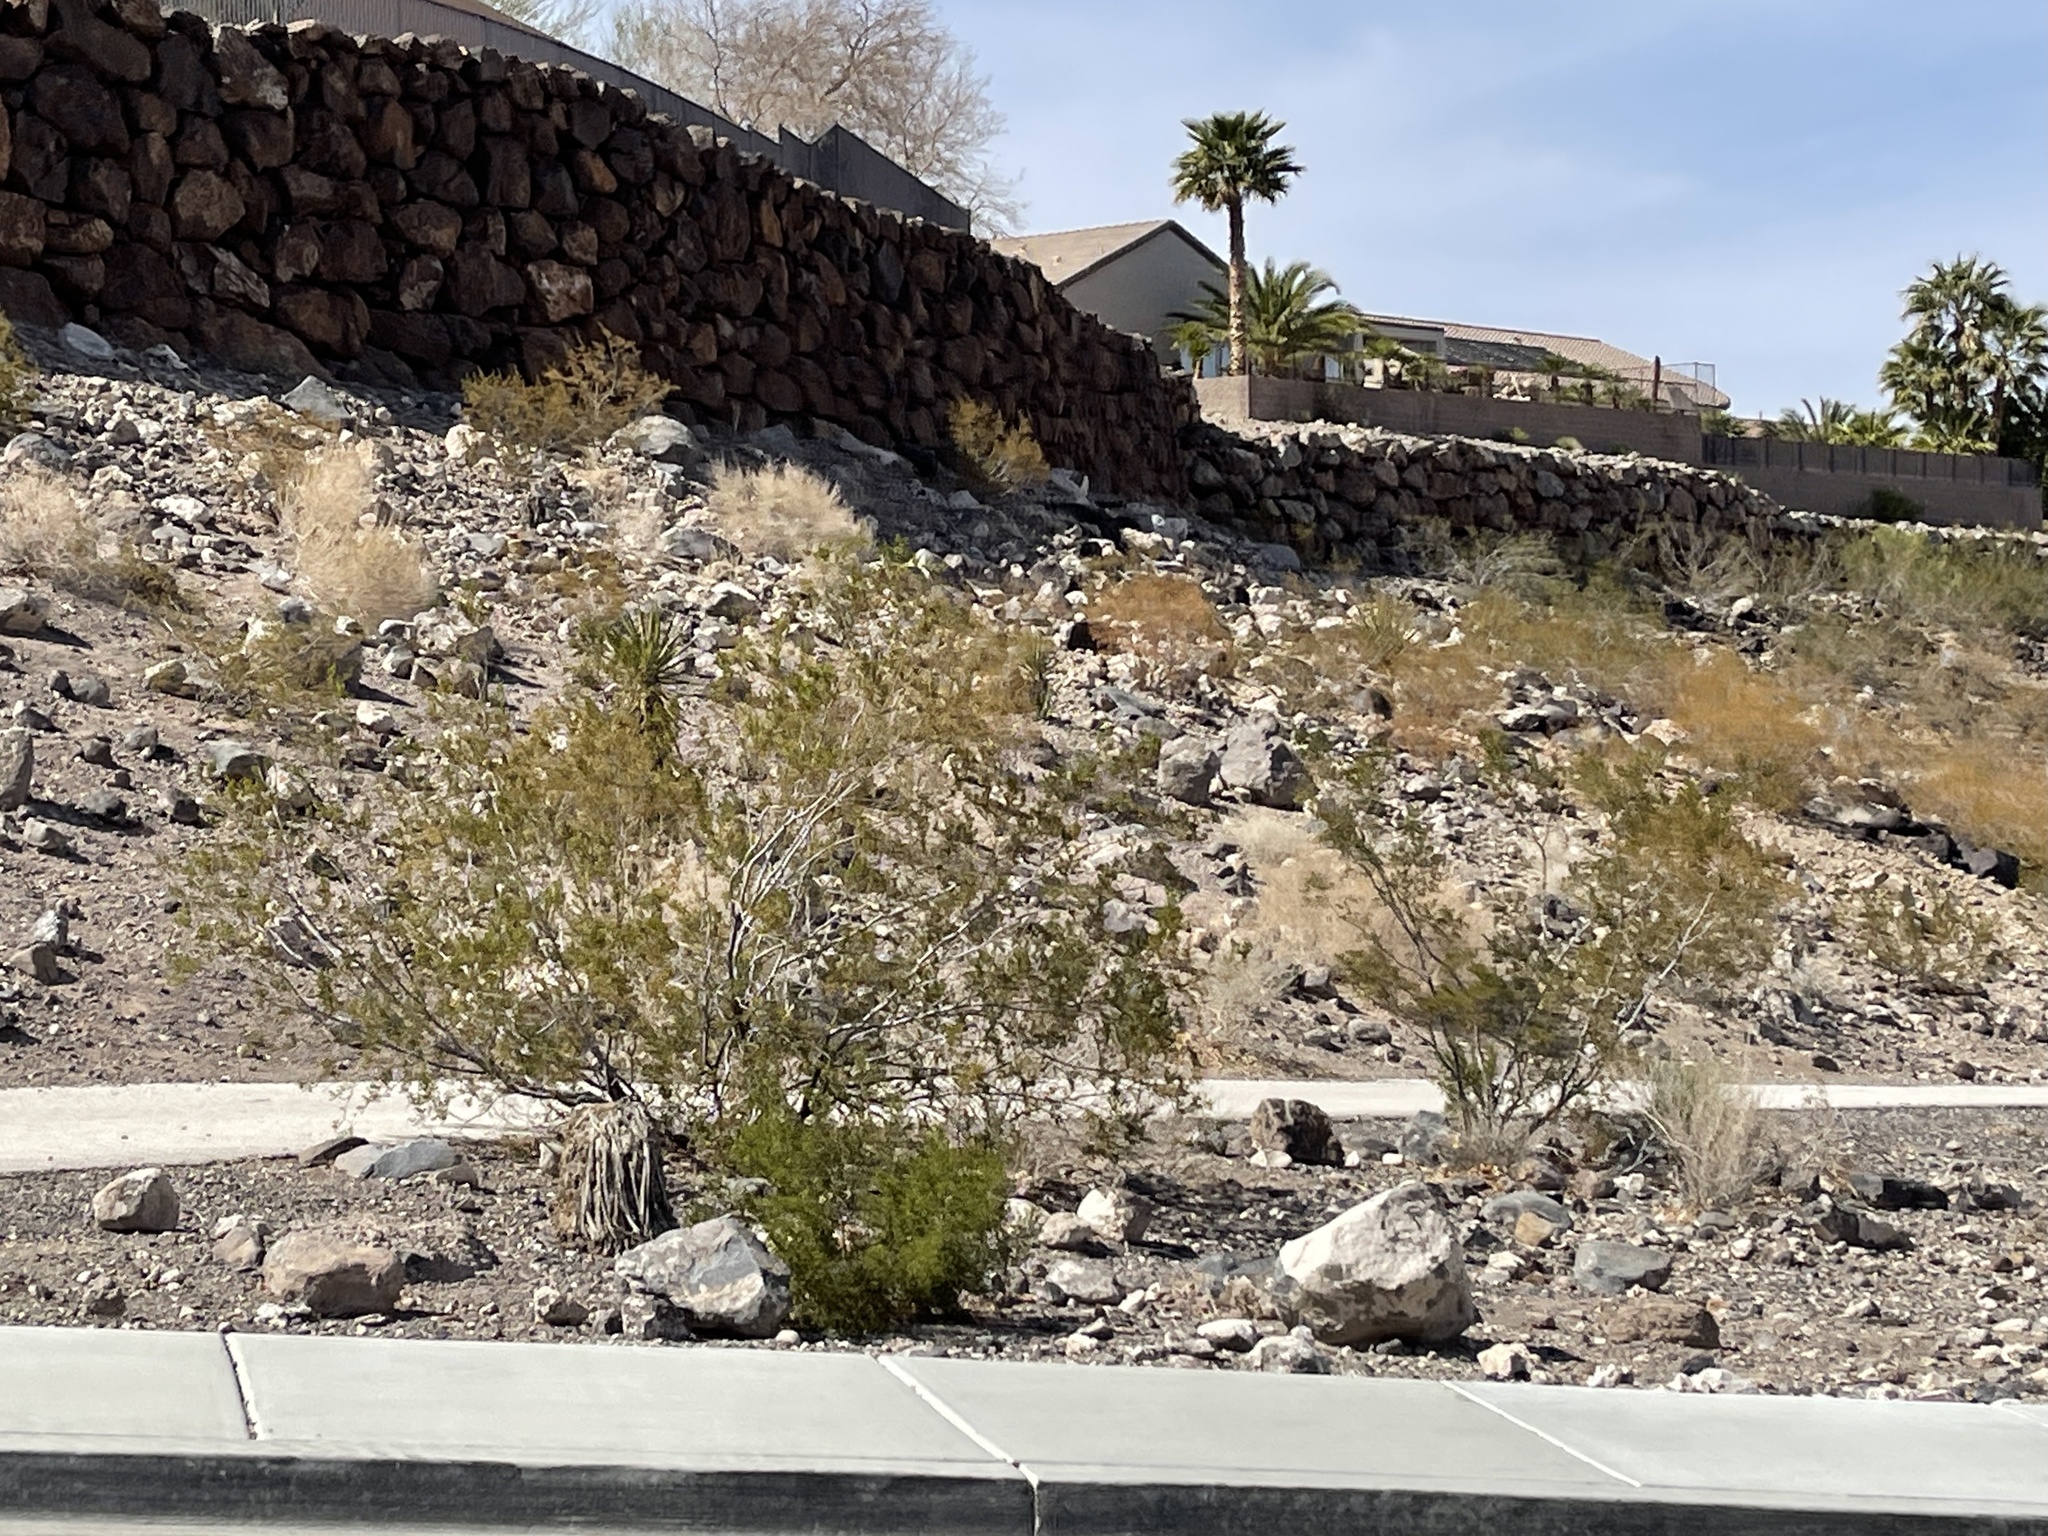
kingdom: Plantae
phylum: Tracheophyta
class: Magnoliopsida
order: Zygophyllales
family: Zygophyllaceae
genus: Larrea
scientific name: Larrea tridentata
